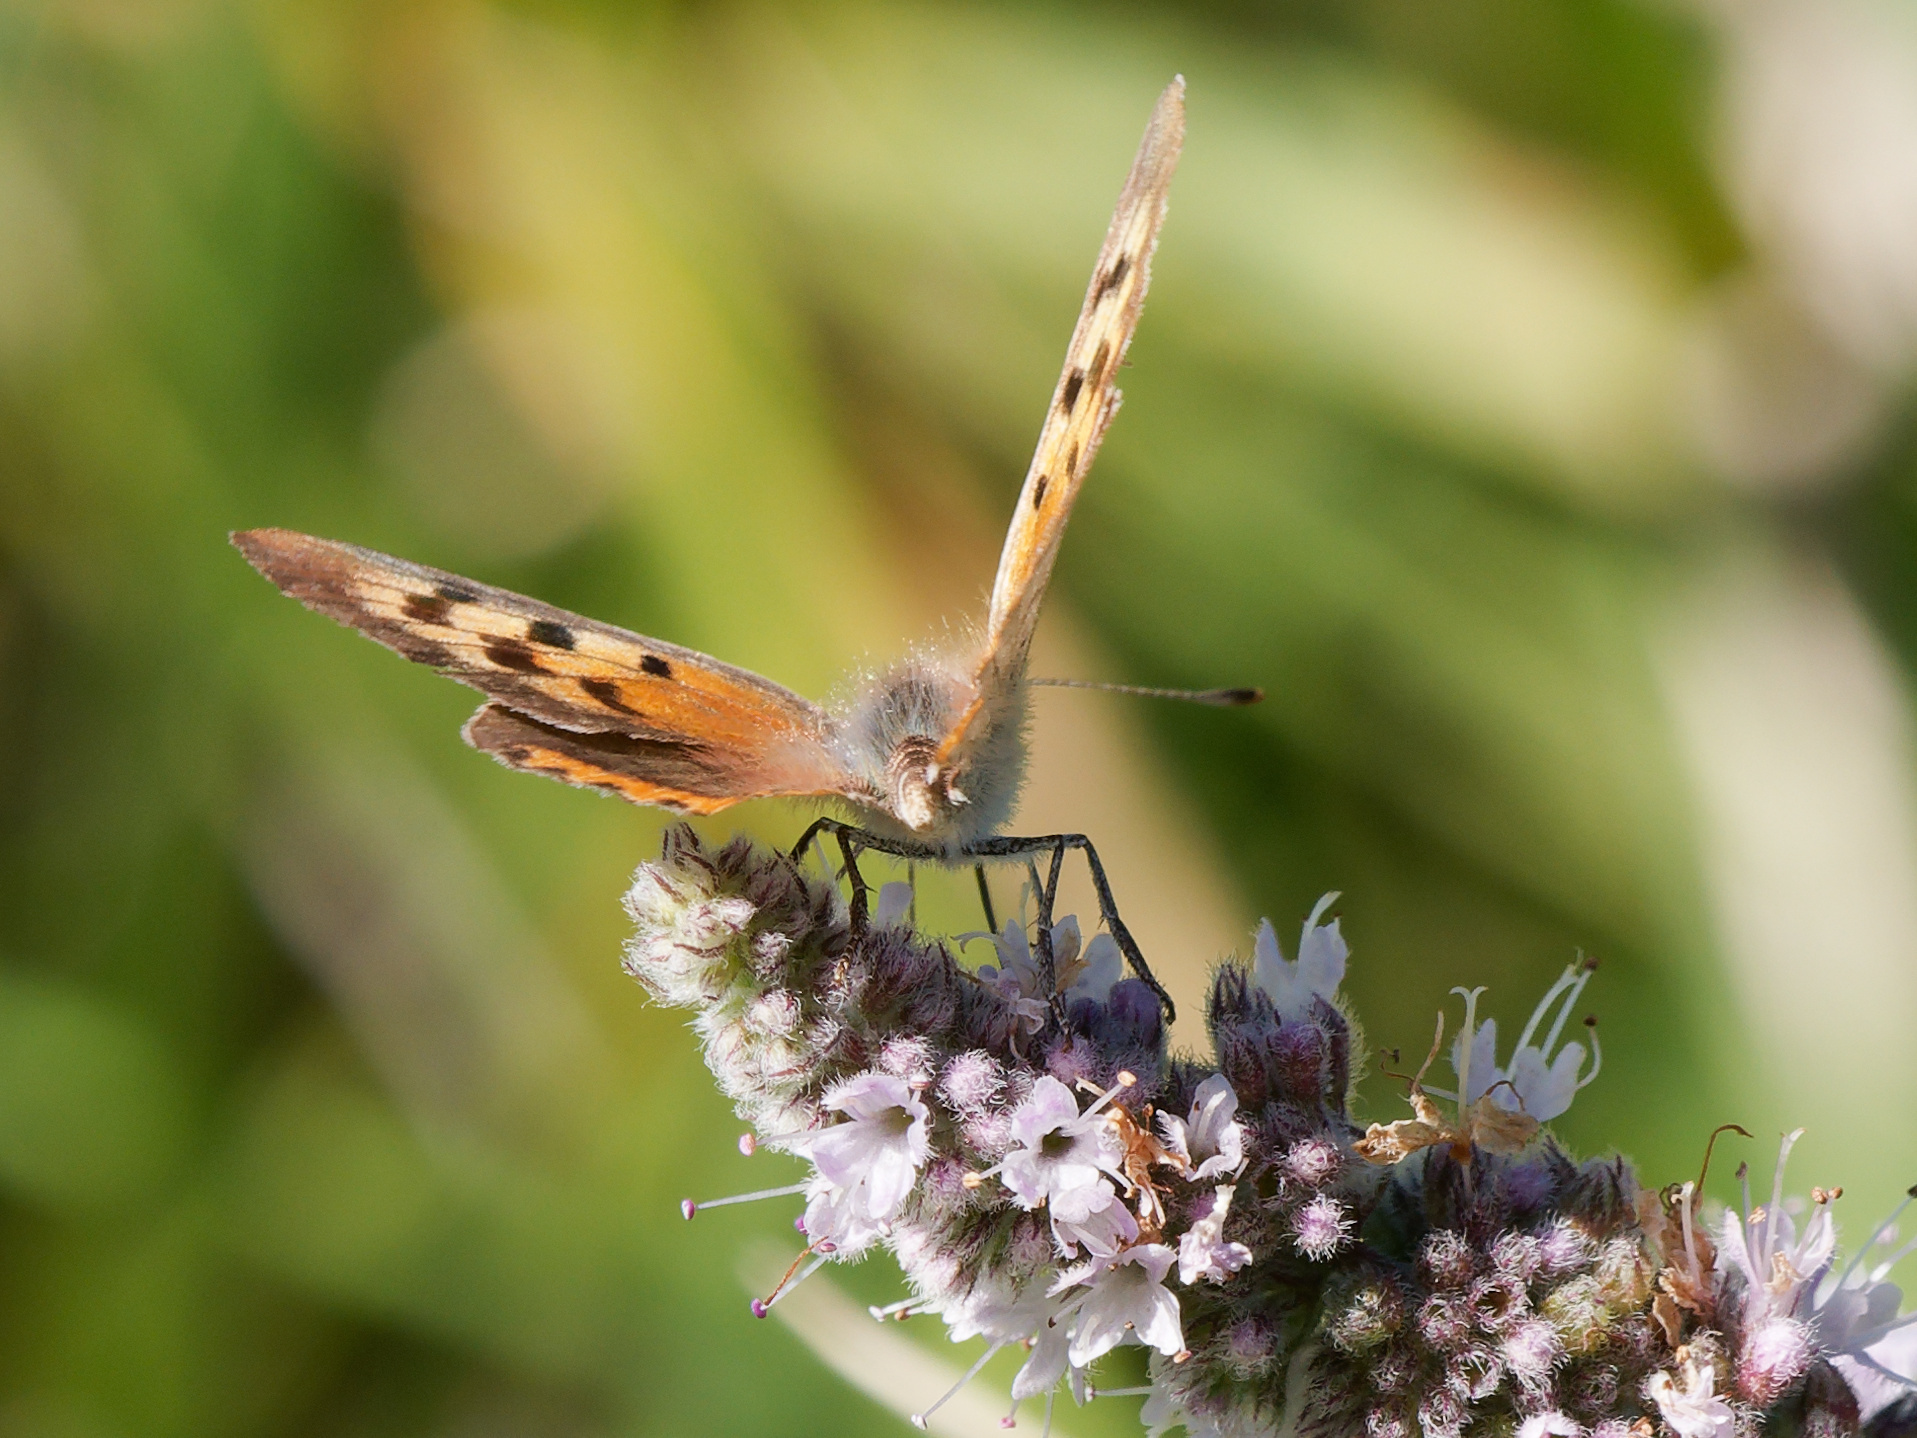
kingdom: Animalia
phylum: Arthropoda
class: Insecta
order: Lepidoptera
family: Lycaenidae
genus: Lycaena
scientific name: Lycaena phlaeas
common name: Small copper
